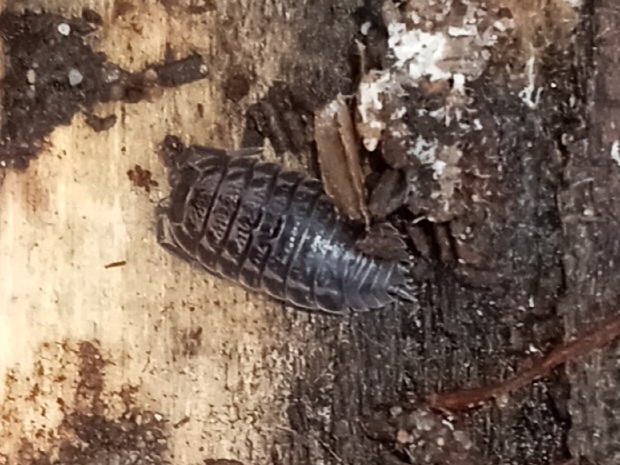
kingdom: Animalia
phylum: Arthropoda
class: Malacostraca
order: Isopoda
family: Trachelipodidae
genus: Trachelipus
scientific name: Trachelipus rathkii
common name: Isopod
